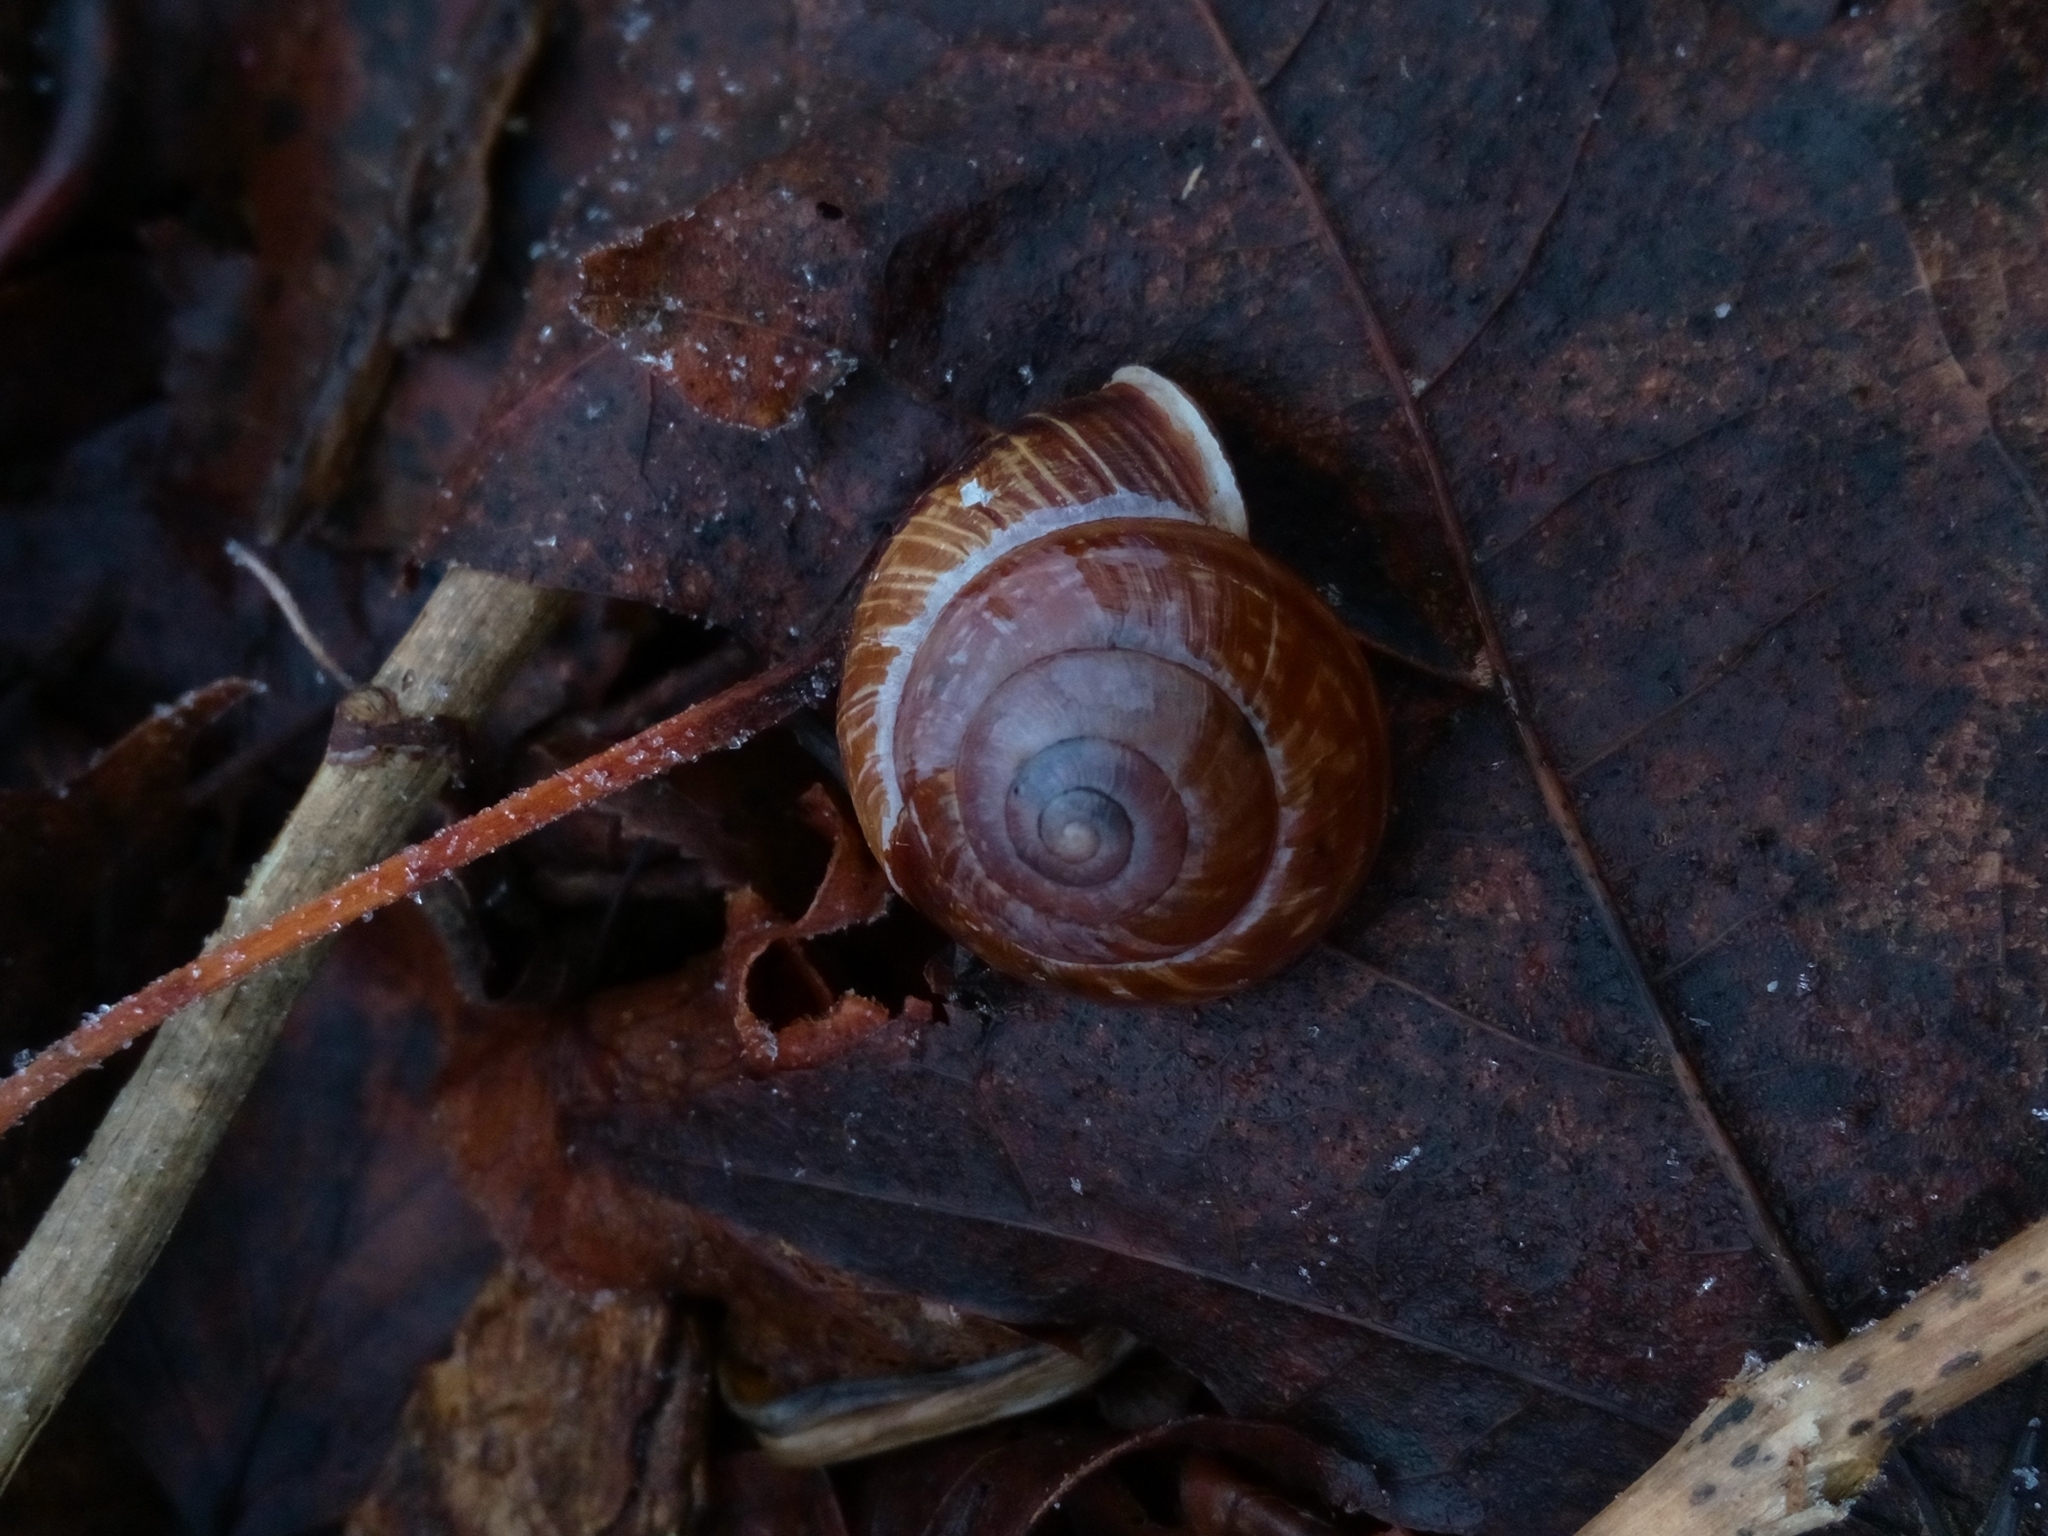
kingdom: Animalia
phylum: Mollusca
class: Gastropoda
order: Stylommatophora
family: Helicidae
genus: Arianta
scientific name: Arianta arbustorum
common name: Copse snail
